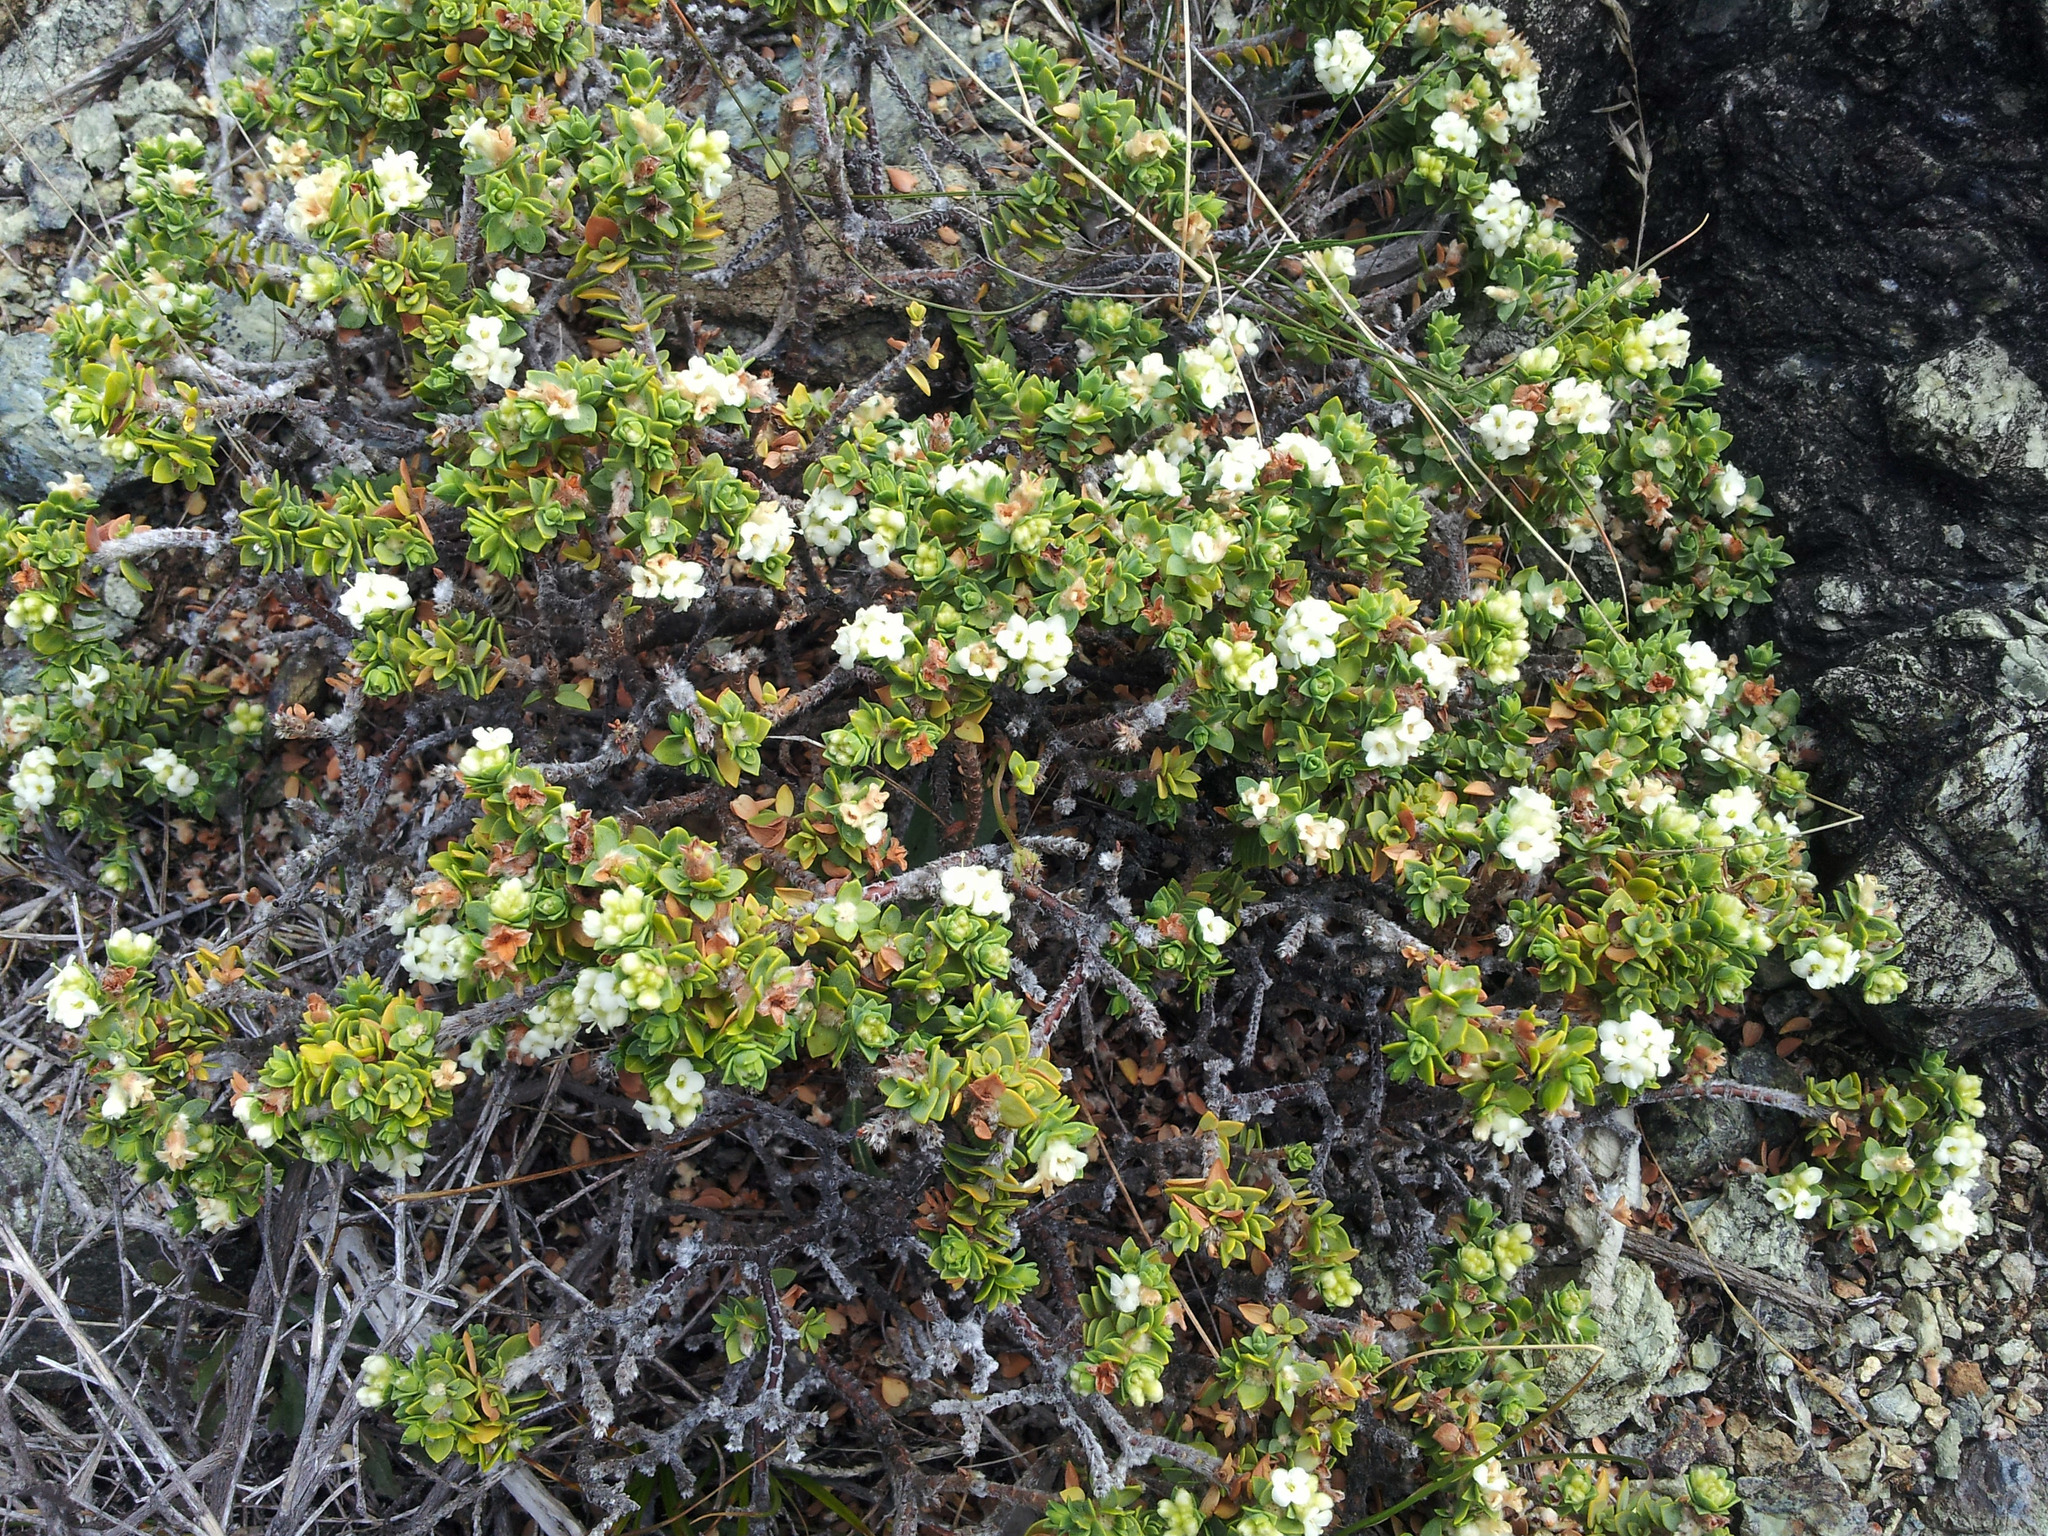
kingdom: Plantae
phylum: Tracheophyta
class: Magnoliopsida
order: Malvales
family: Thymelaeaceae
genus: Pimelea
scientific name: Pimelea carnosa
